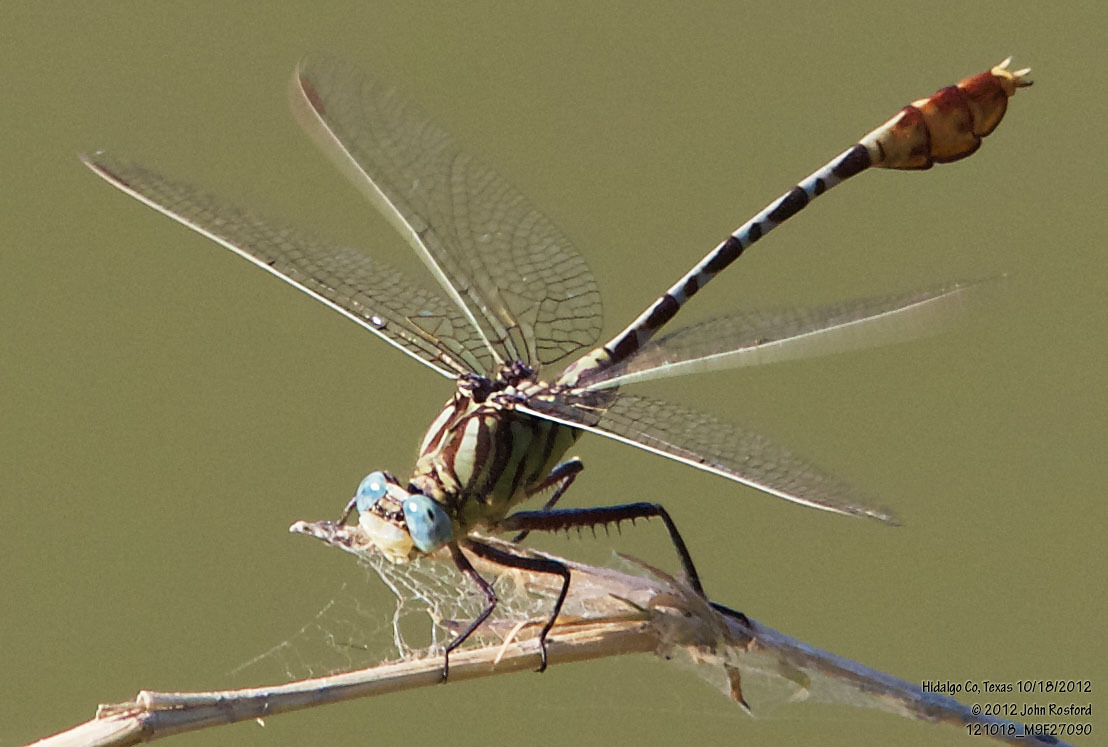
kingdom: Animalia
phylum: Arthropoda
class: Insecta
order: Odonata
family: Gomphidae
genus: Dromogomphus
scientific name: Dromogomphus spoliatus
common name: Flag-tailed spinyleg
